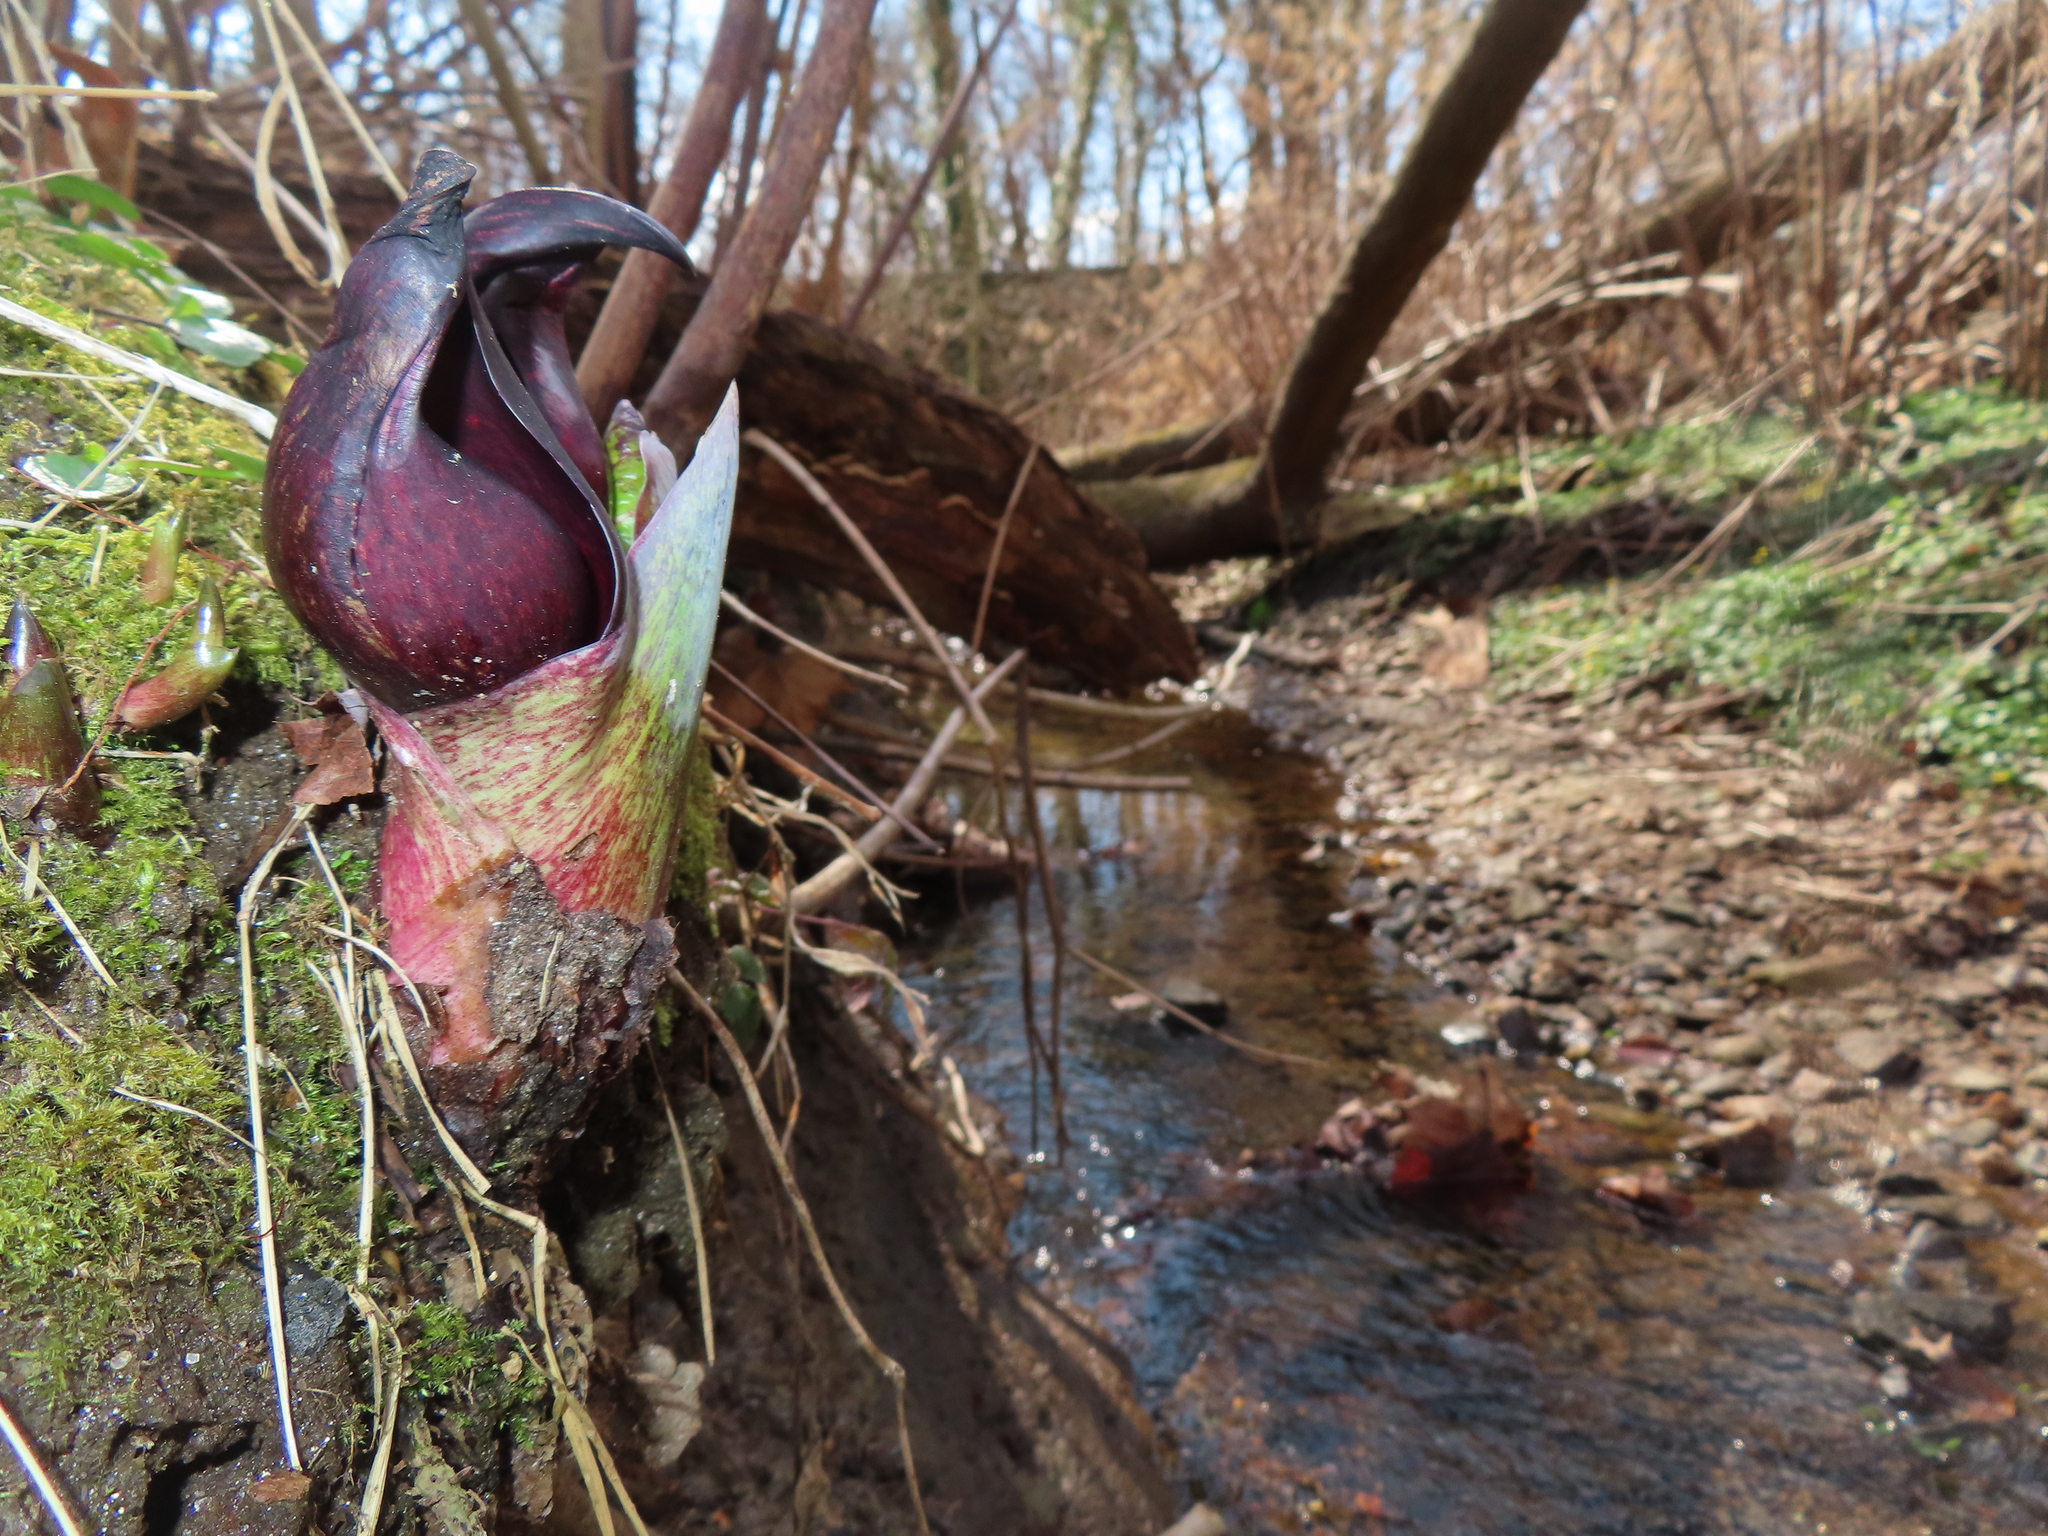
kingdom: Plantae
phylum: Tracheophyta
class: Liliopsida
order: Alismatales
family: Araceae
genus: Symplocarpus
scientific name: Symplocarpus foetidus
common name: Eastern skunk cabbage
